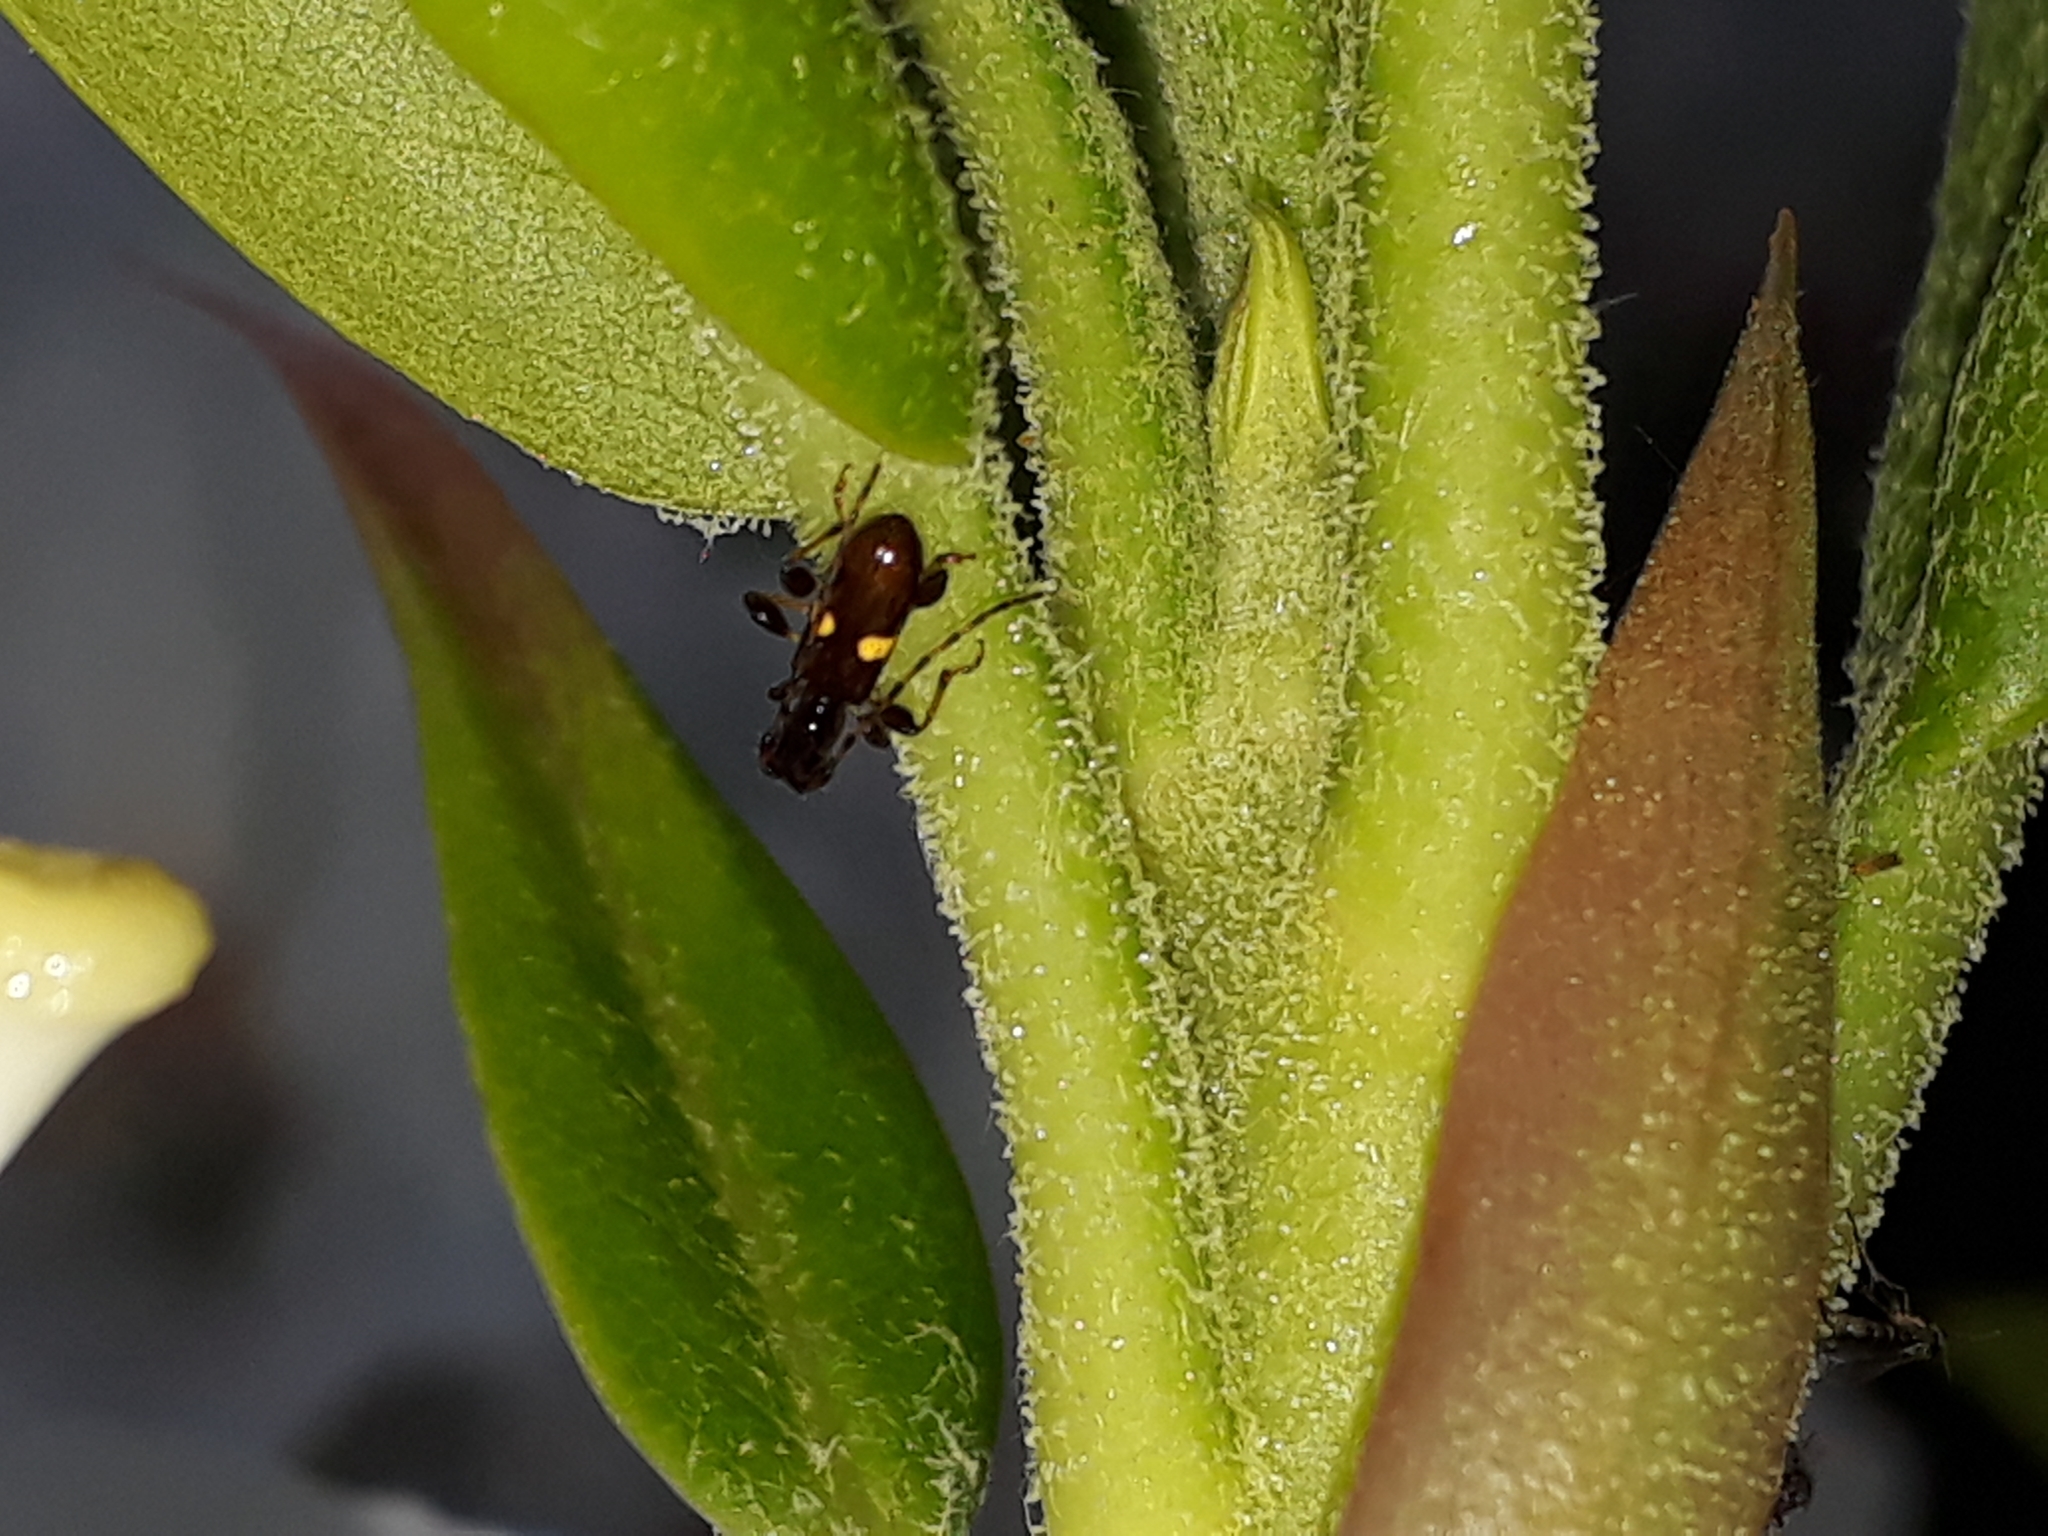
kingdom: Animalia
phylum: Arthropoda
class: Insecta
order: Coleoptera
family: Cerambycidae
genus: Zorion
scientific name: Zorion guttigerum
